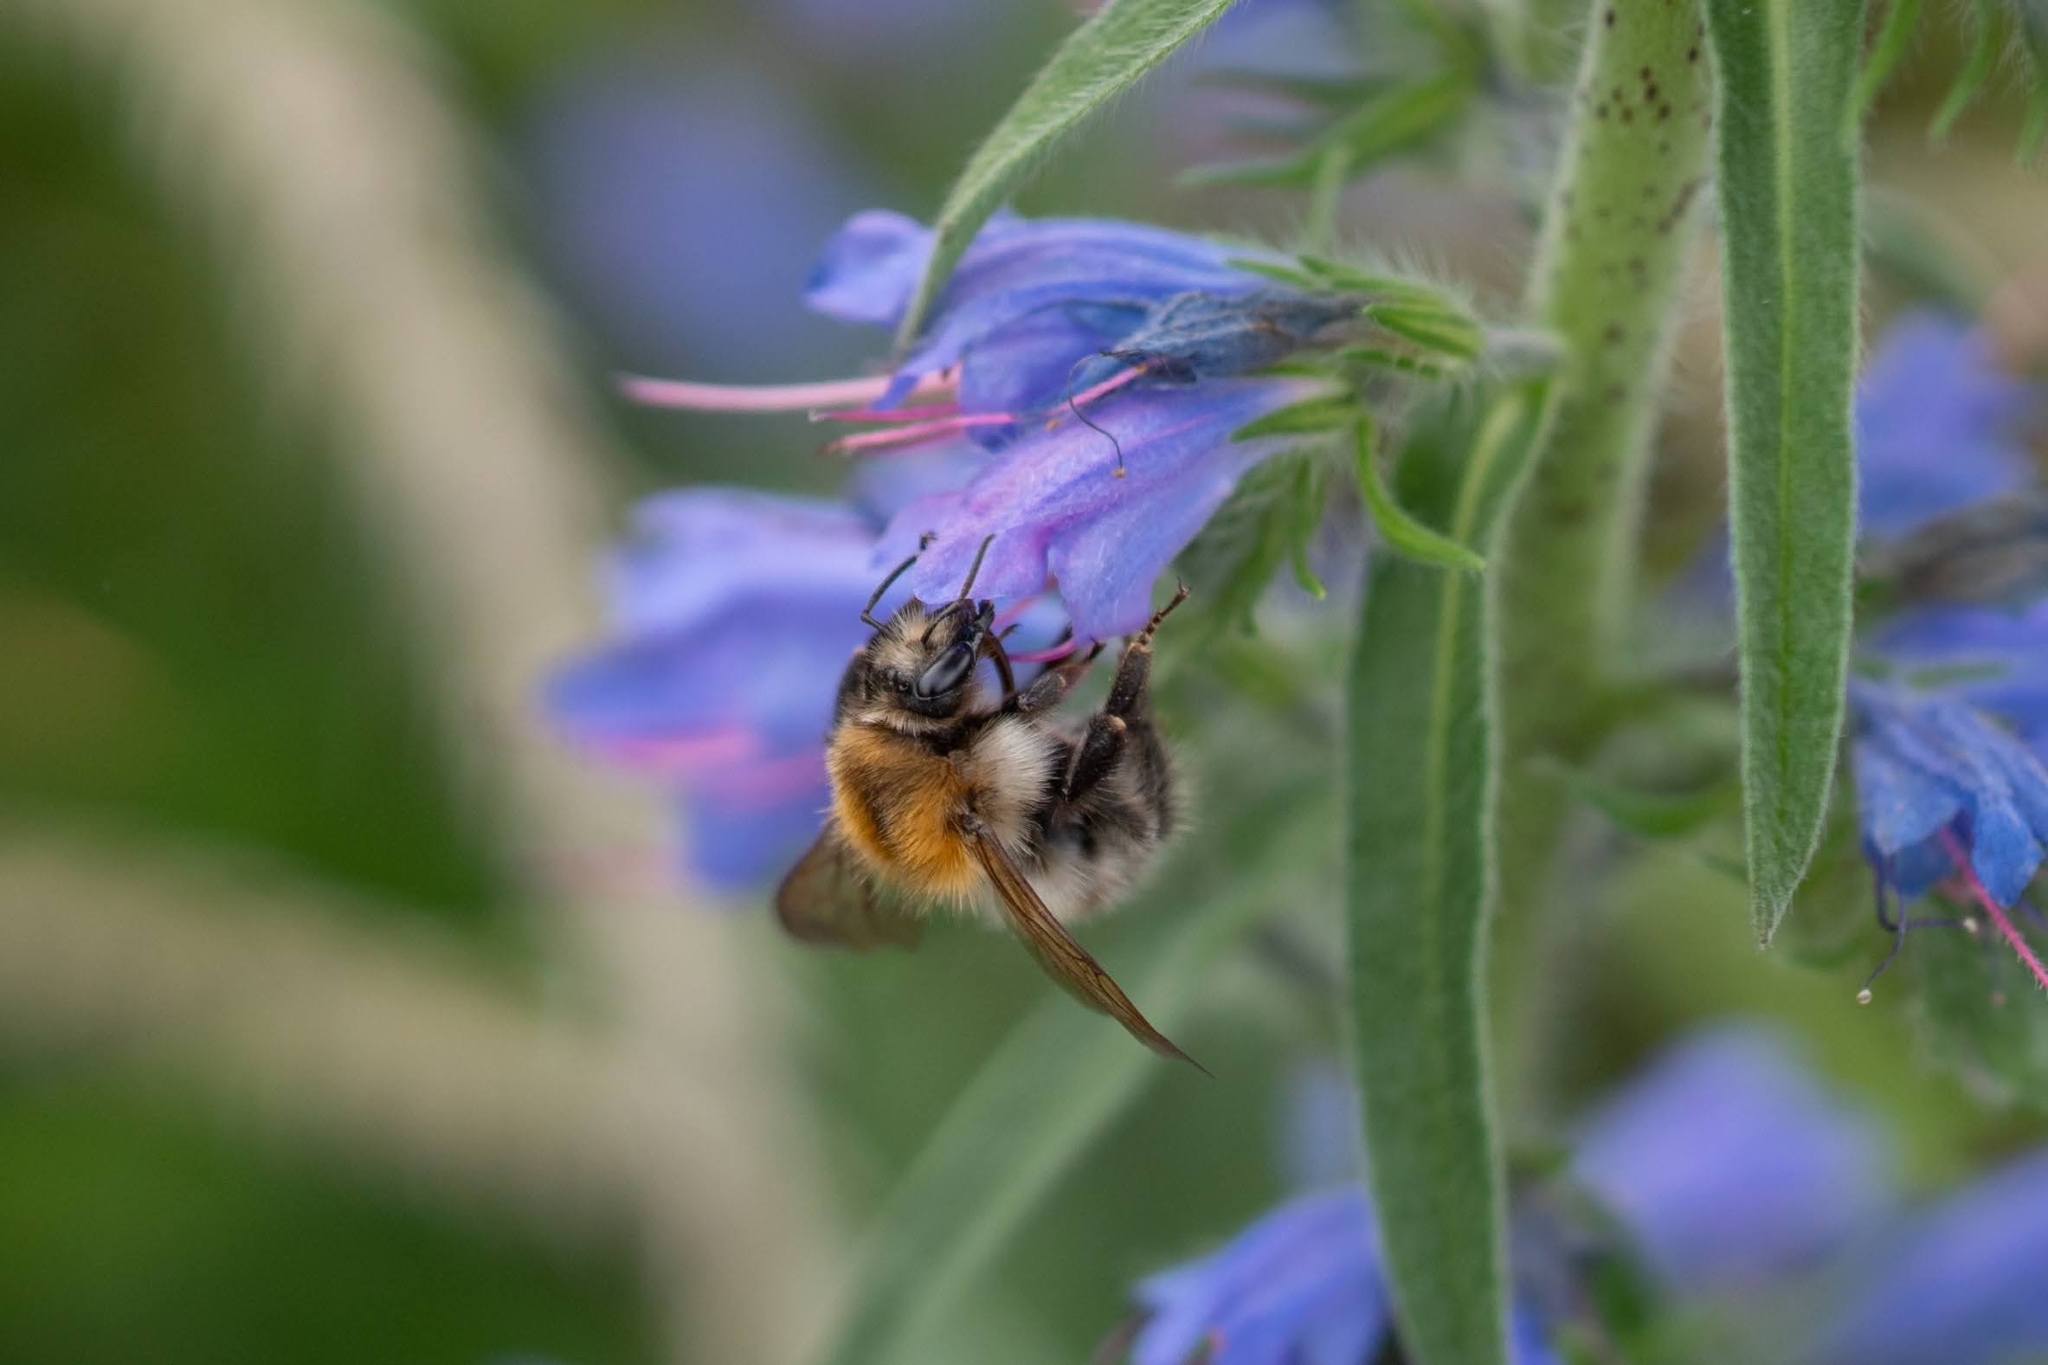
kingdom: Animalia
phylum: Arthropoda
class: Insecta
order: Hymenoptera
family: Apidae
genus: Bombus
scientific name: Bombus pascuorum
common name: Common carder bee
